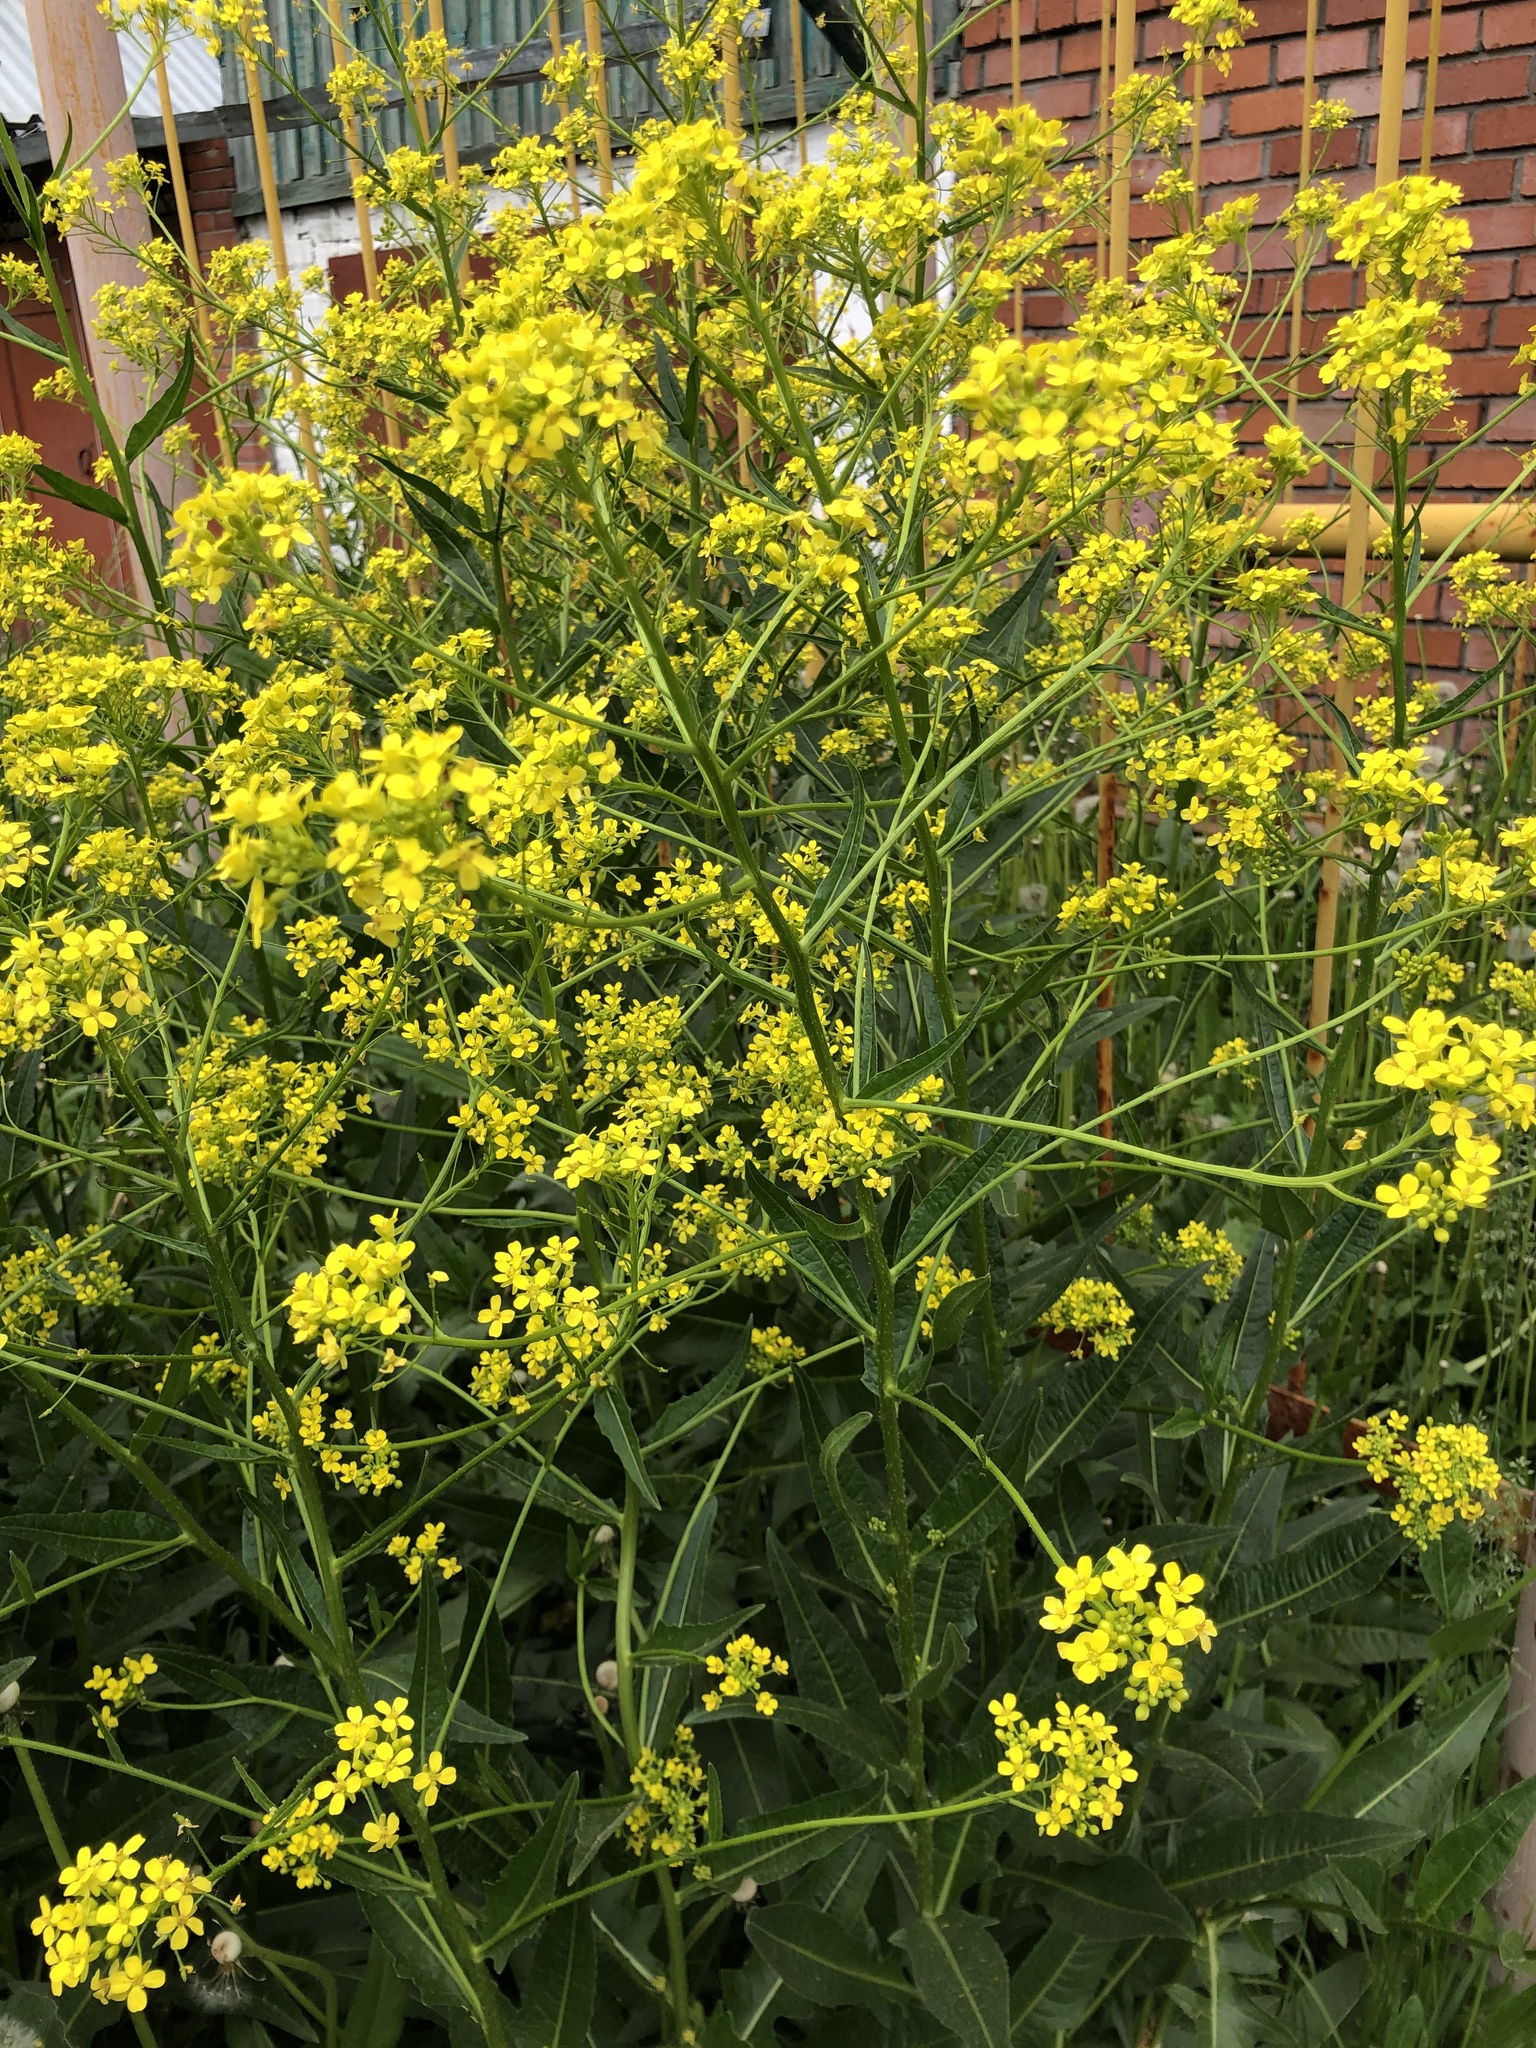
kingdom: Plantae
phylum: Tracheophyta
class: Magnoliopsida
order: Brassicales
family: Brassicaceae
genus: Bunias
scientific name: Bunias orientalis
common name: Warty-cabbage
